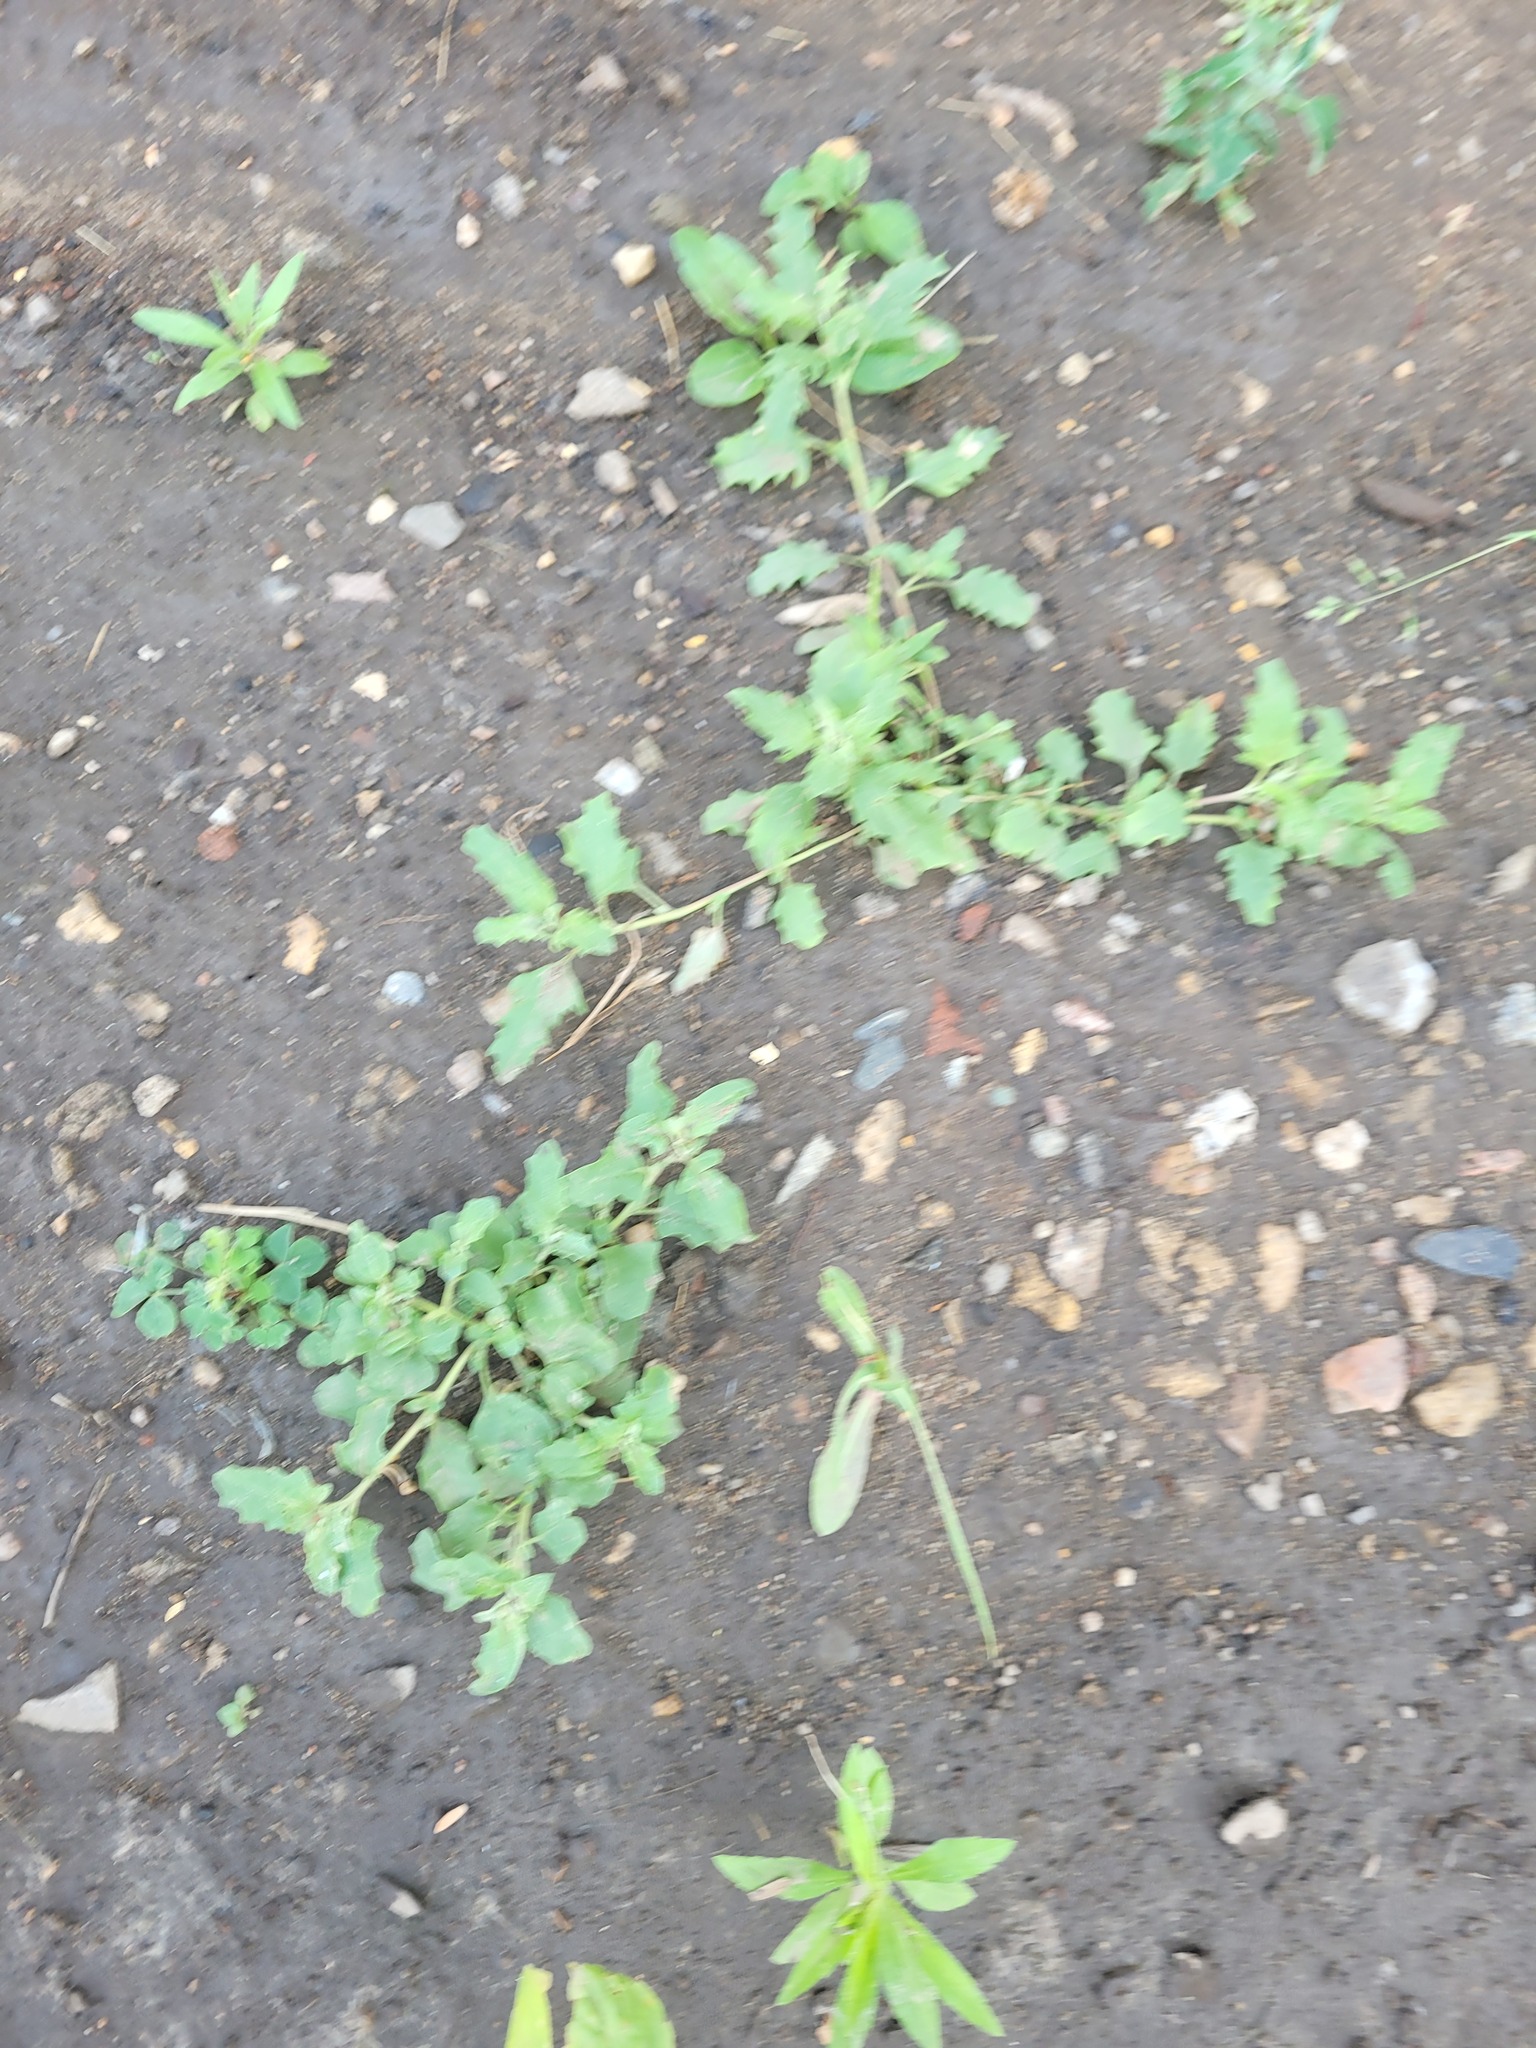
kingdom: Plantae
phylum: Tracheophyta
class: Magnoliopsida
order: Caryophyllales
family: Amaranthaceae
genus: Atriplex
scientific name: Atriplex tatarica
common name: Tatarian orache
